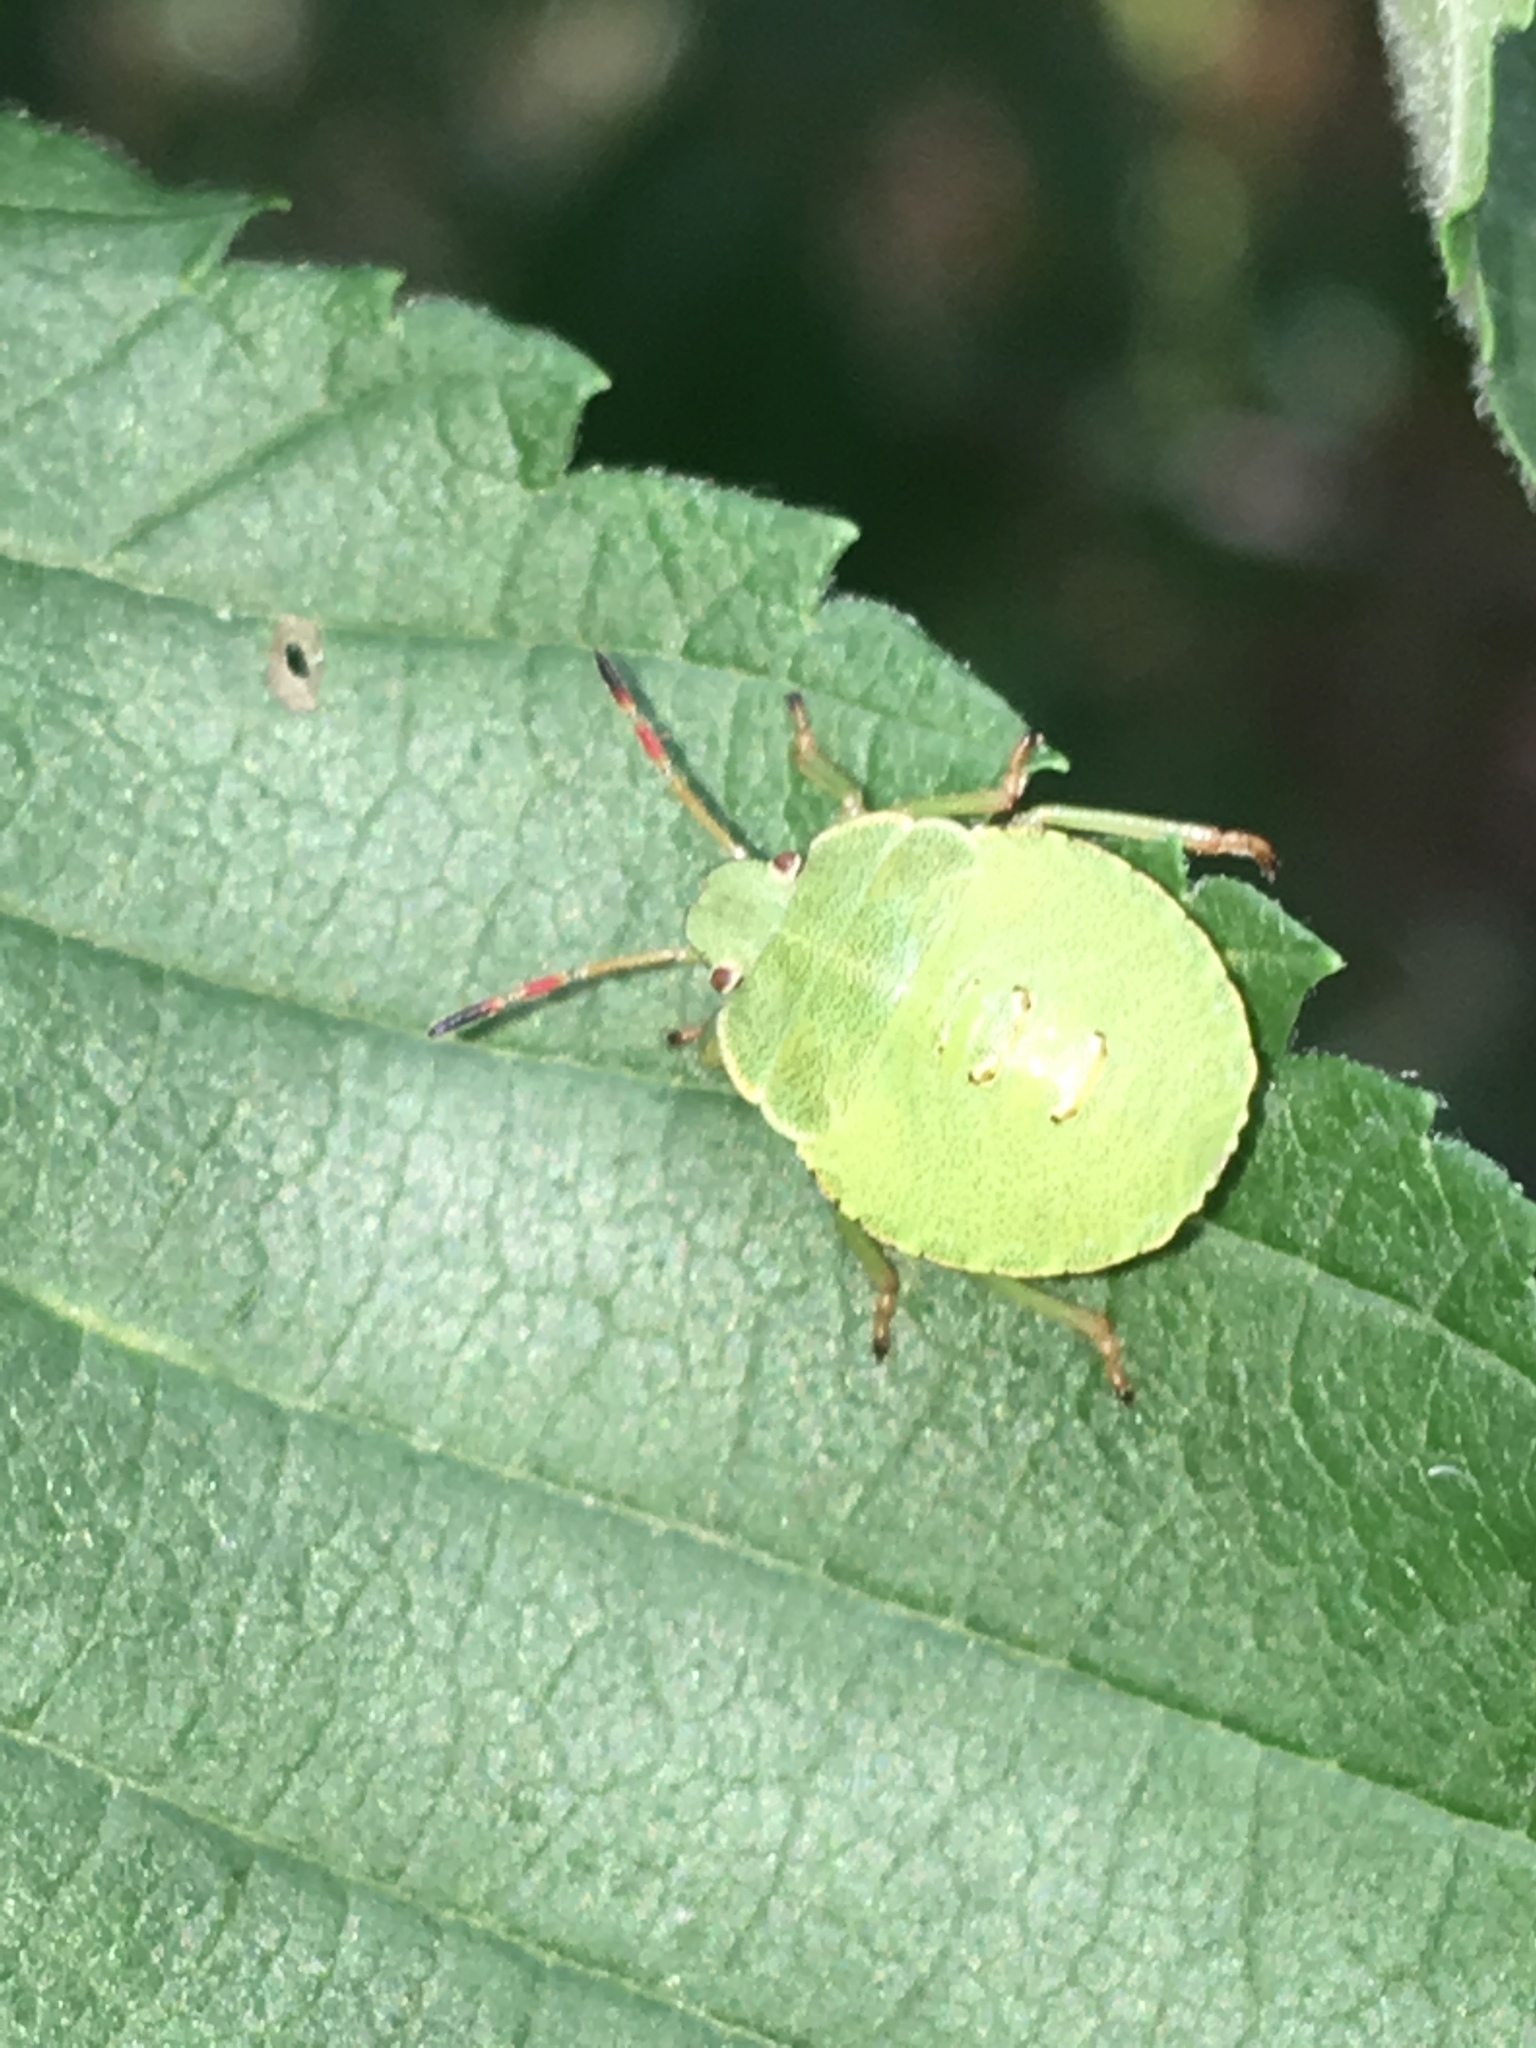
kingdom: Animalia
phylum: Arthropoda
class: Insecta
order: Hemiptera
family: Pentatomidae
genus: Palomena
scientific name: Palomena prasina
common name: Green shieldbug
